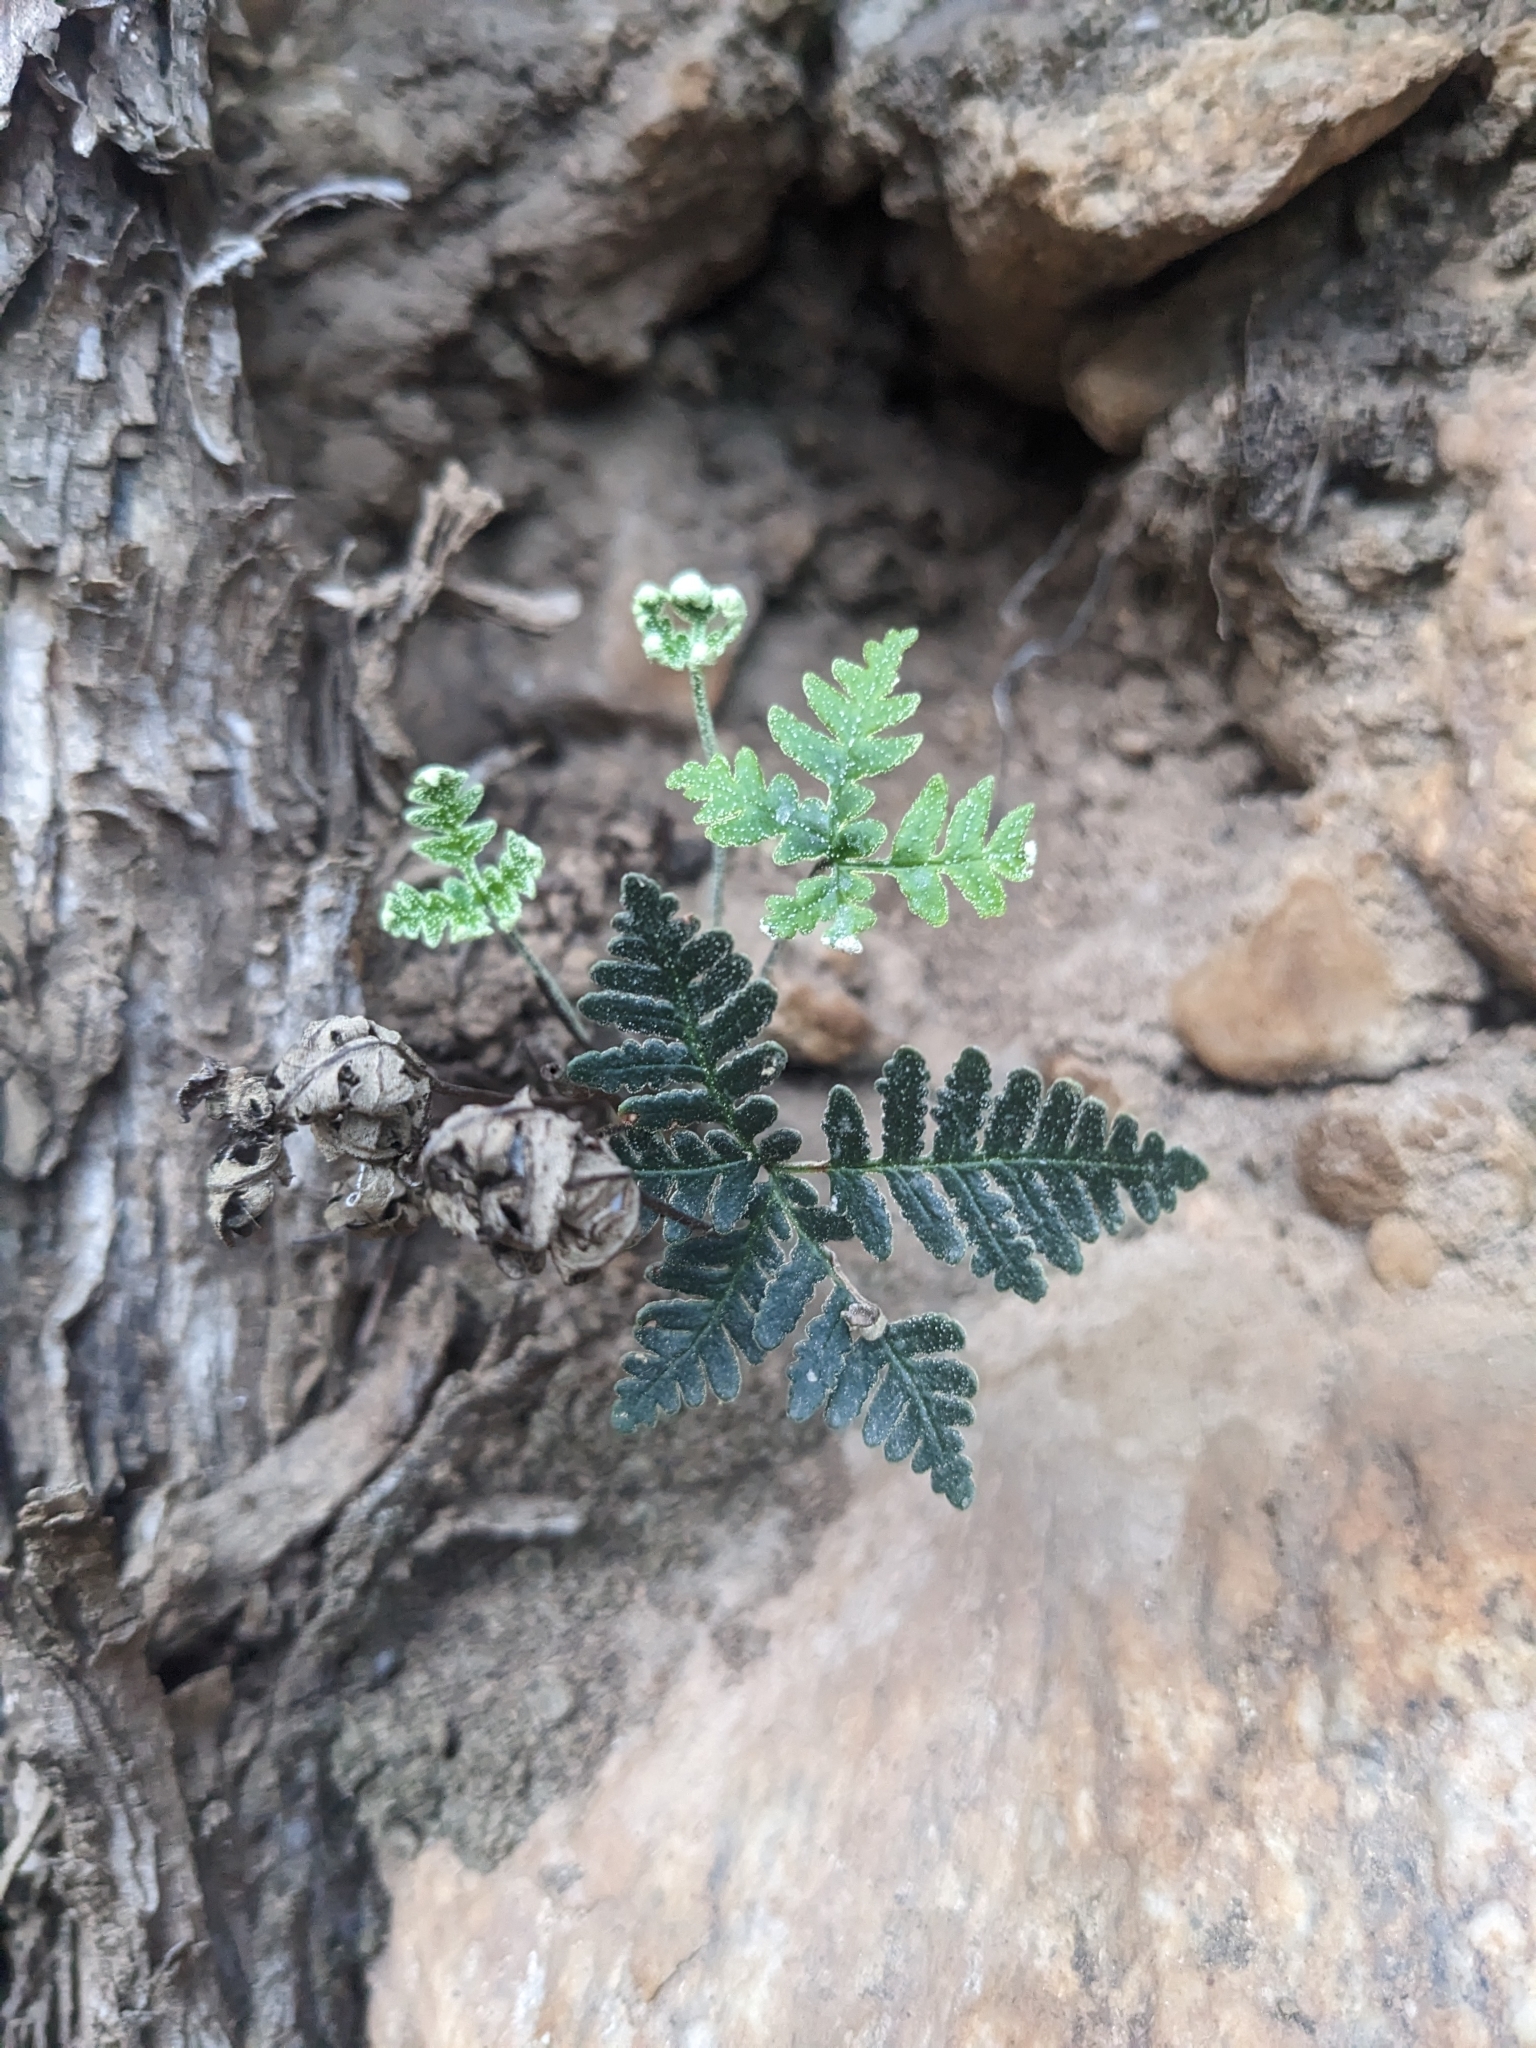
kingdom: Plantae
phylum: Tracheophyta
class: Polypodiopsida
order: Polypodiales
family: Pteridaceae
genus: Notholaena
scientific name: Notholaena standleyi
